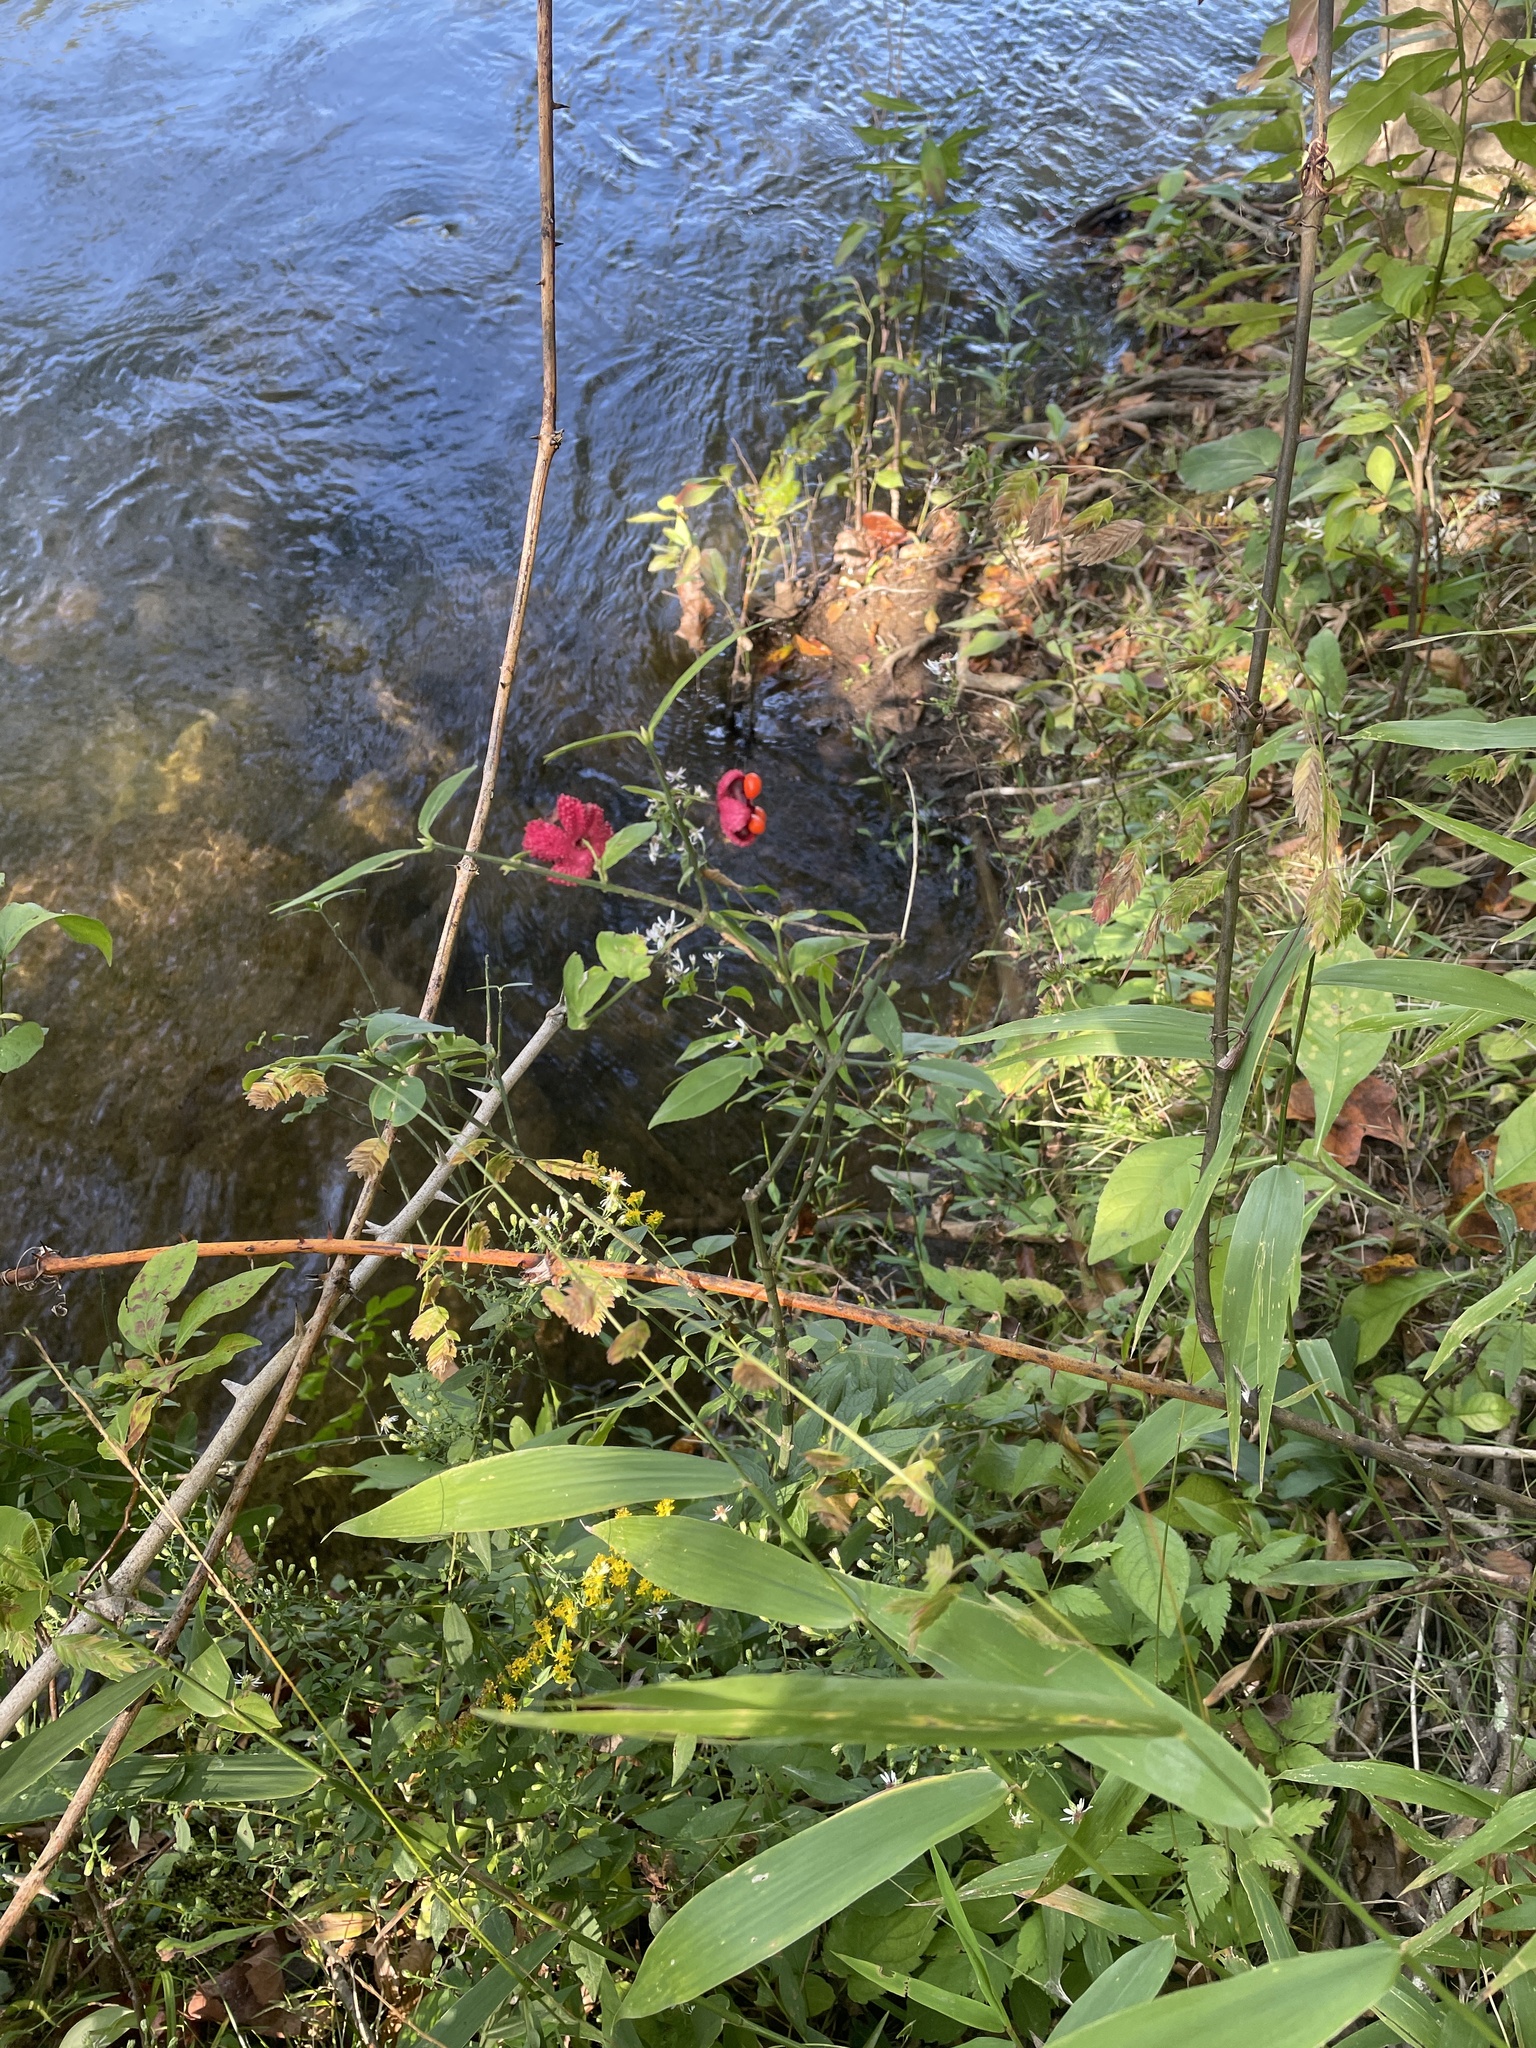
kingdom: Plantae
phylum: Tracheophyta
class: Magnoliopsida
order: Celastrales
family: Celastraceae
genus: Euonymus
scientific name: Euonymus americanus
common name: Bursting-heart
